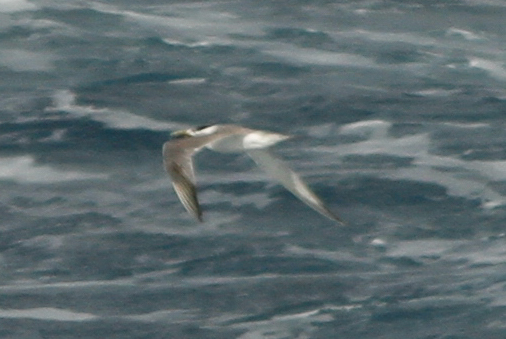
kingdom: Animalia
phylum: Chordata
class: Aves
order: Charadriiformes
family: Laridae
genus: Thalasseus
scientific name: Thalasseus bergii
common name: Greater crested tern
